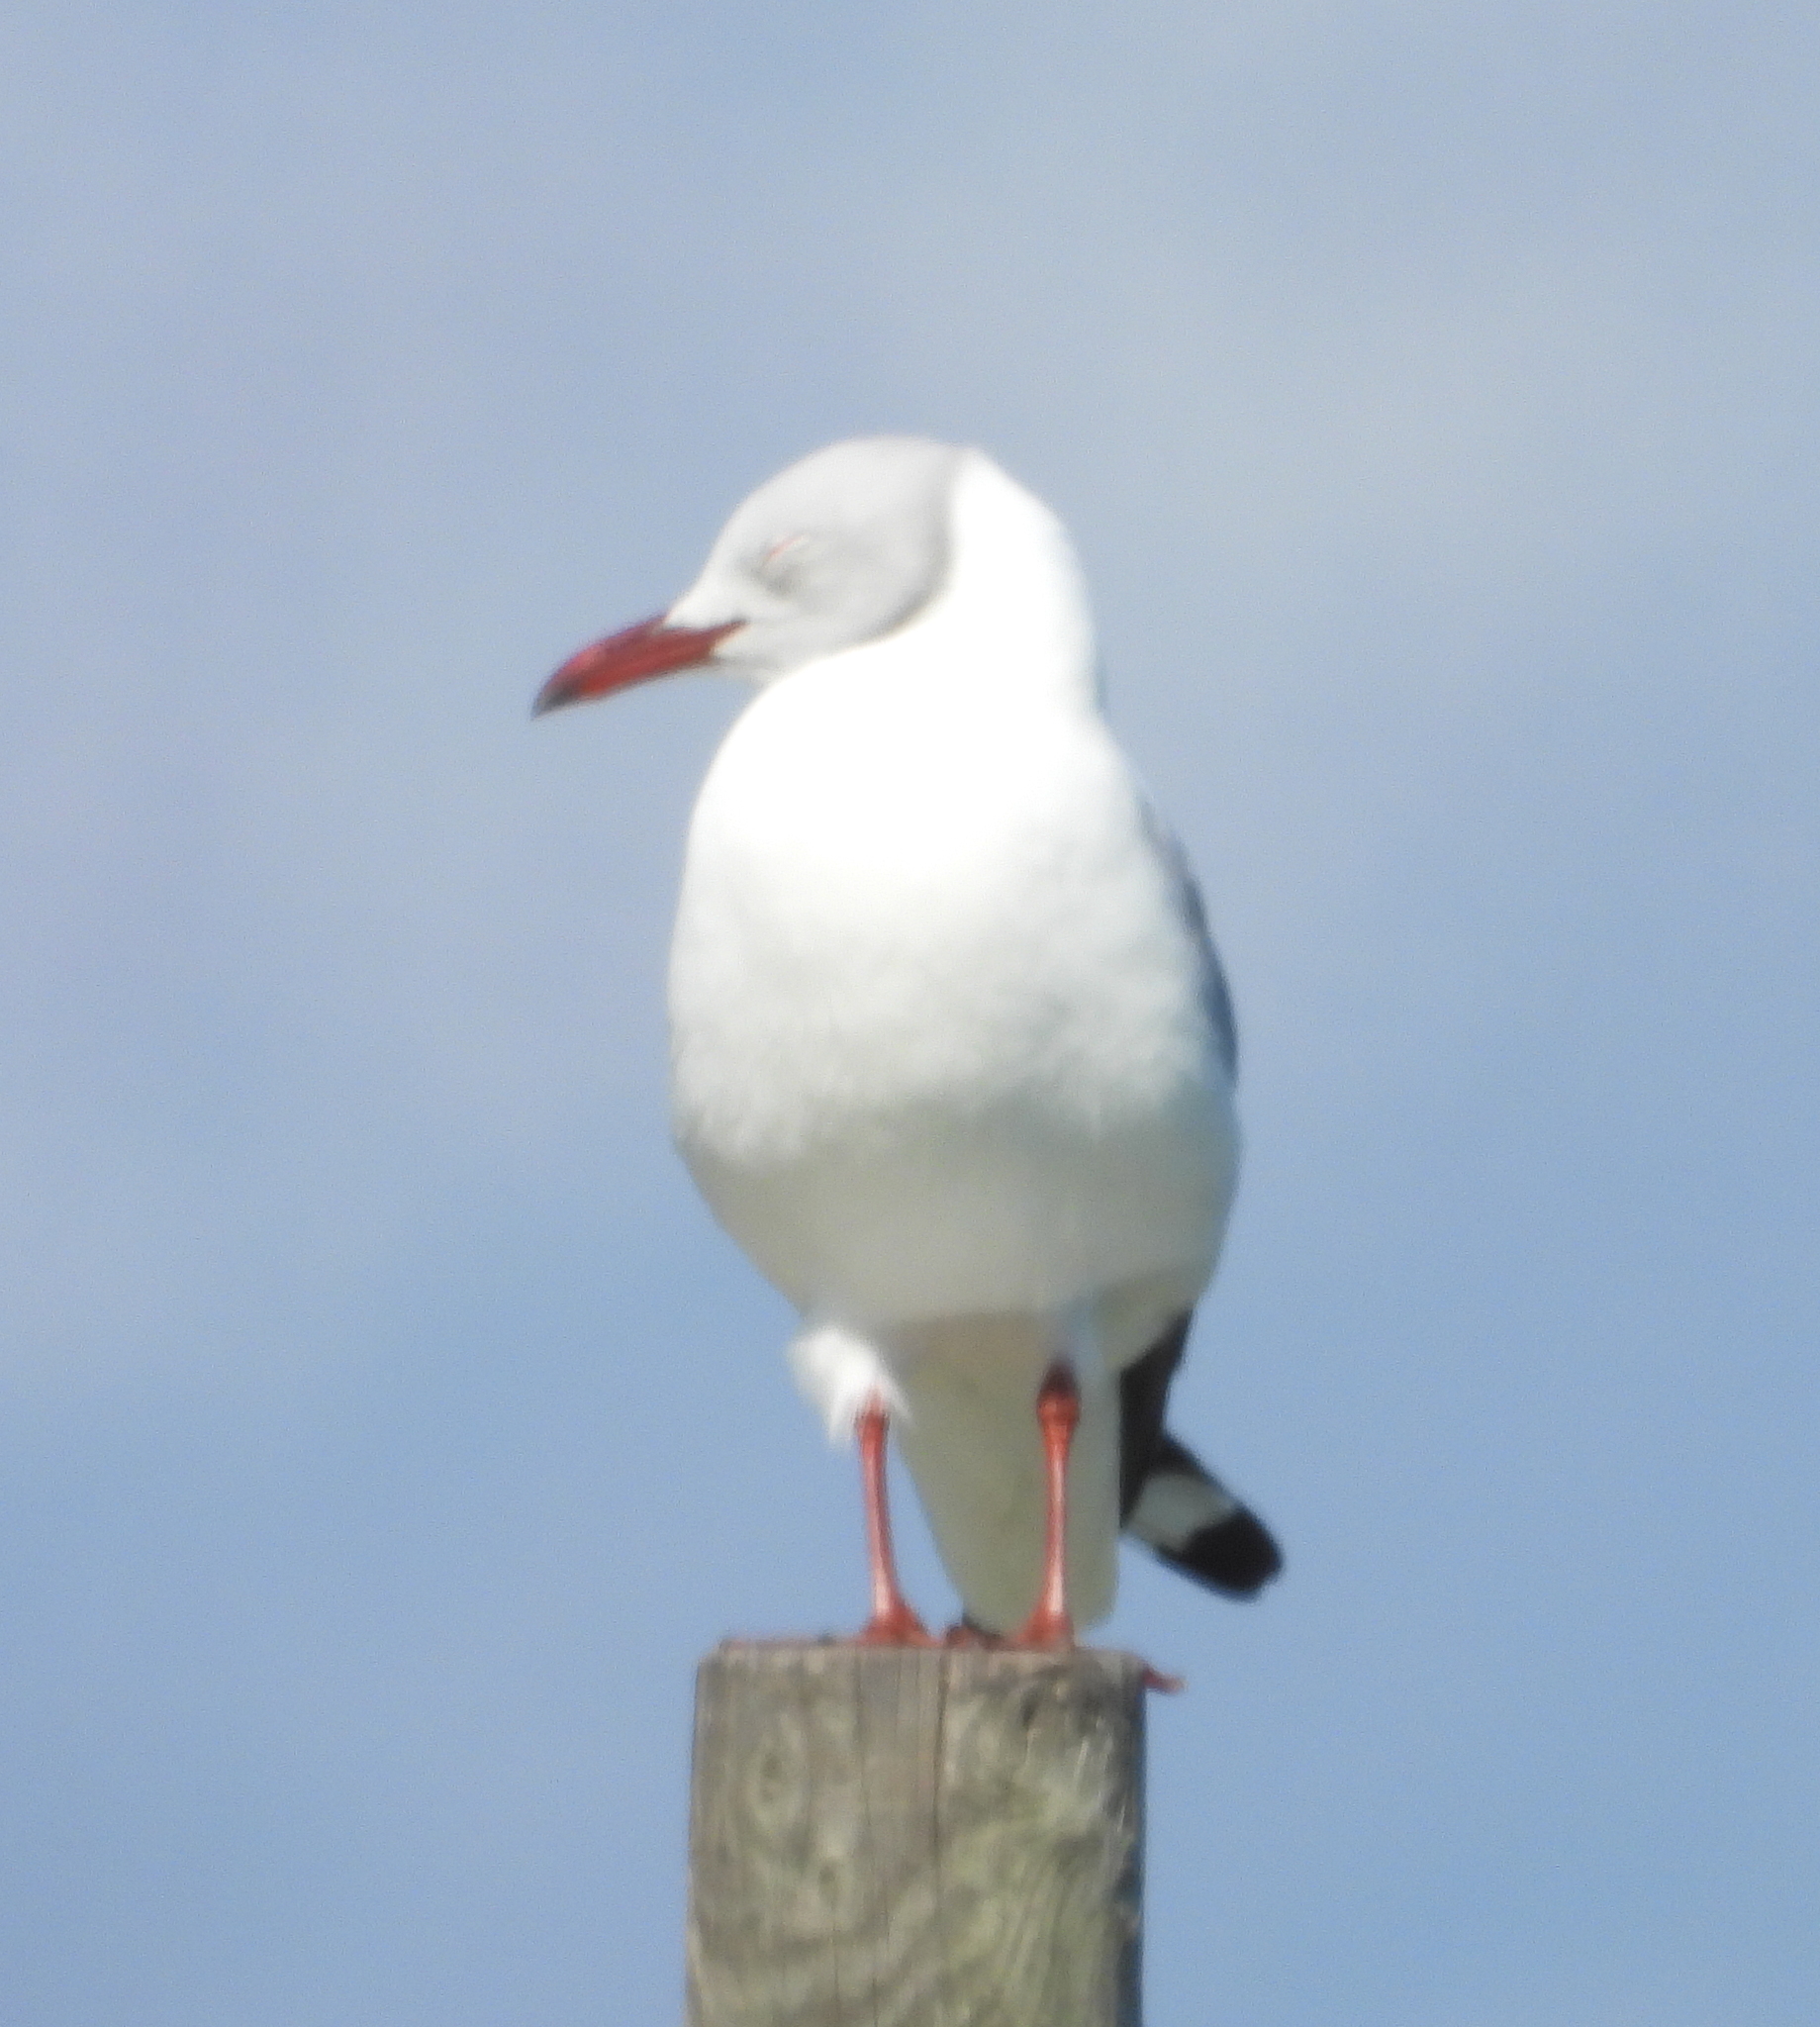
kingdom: Animalia
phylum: Chordata
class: Aves
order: Charadriiformes
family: Laridae
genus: Chroicocephalus
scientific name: Chroicocephalus cirrocephalus
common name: Grey-headed gull
